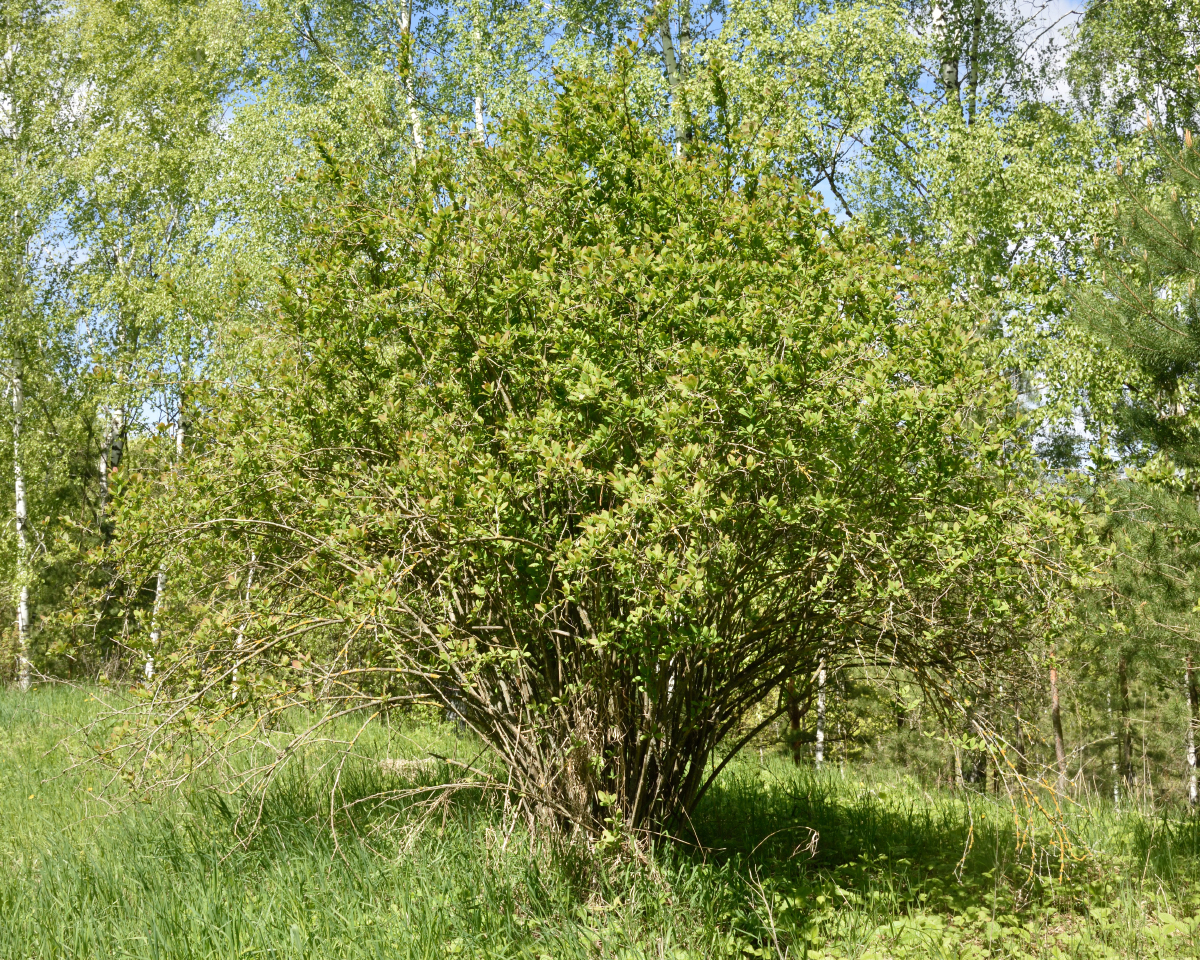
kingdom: Plantae
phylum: Tracheophyta
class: Magnoliopsida
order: Ranunculales
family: Berberidaceae
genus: Berberis
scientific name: Berberis vulgaris
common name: Barberry
